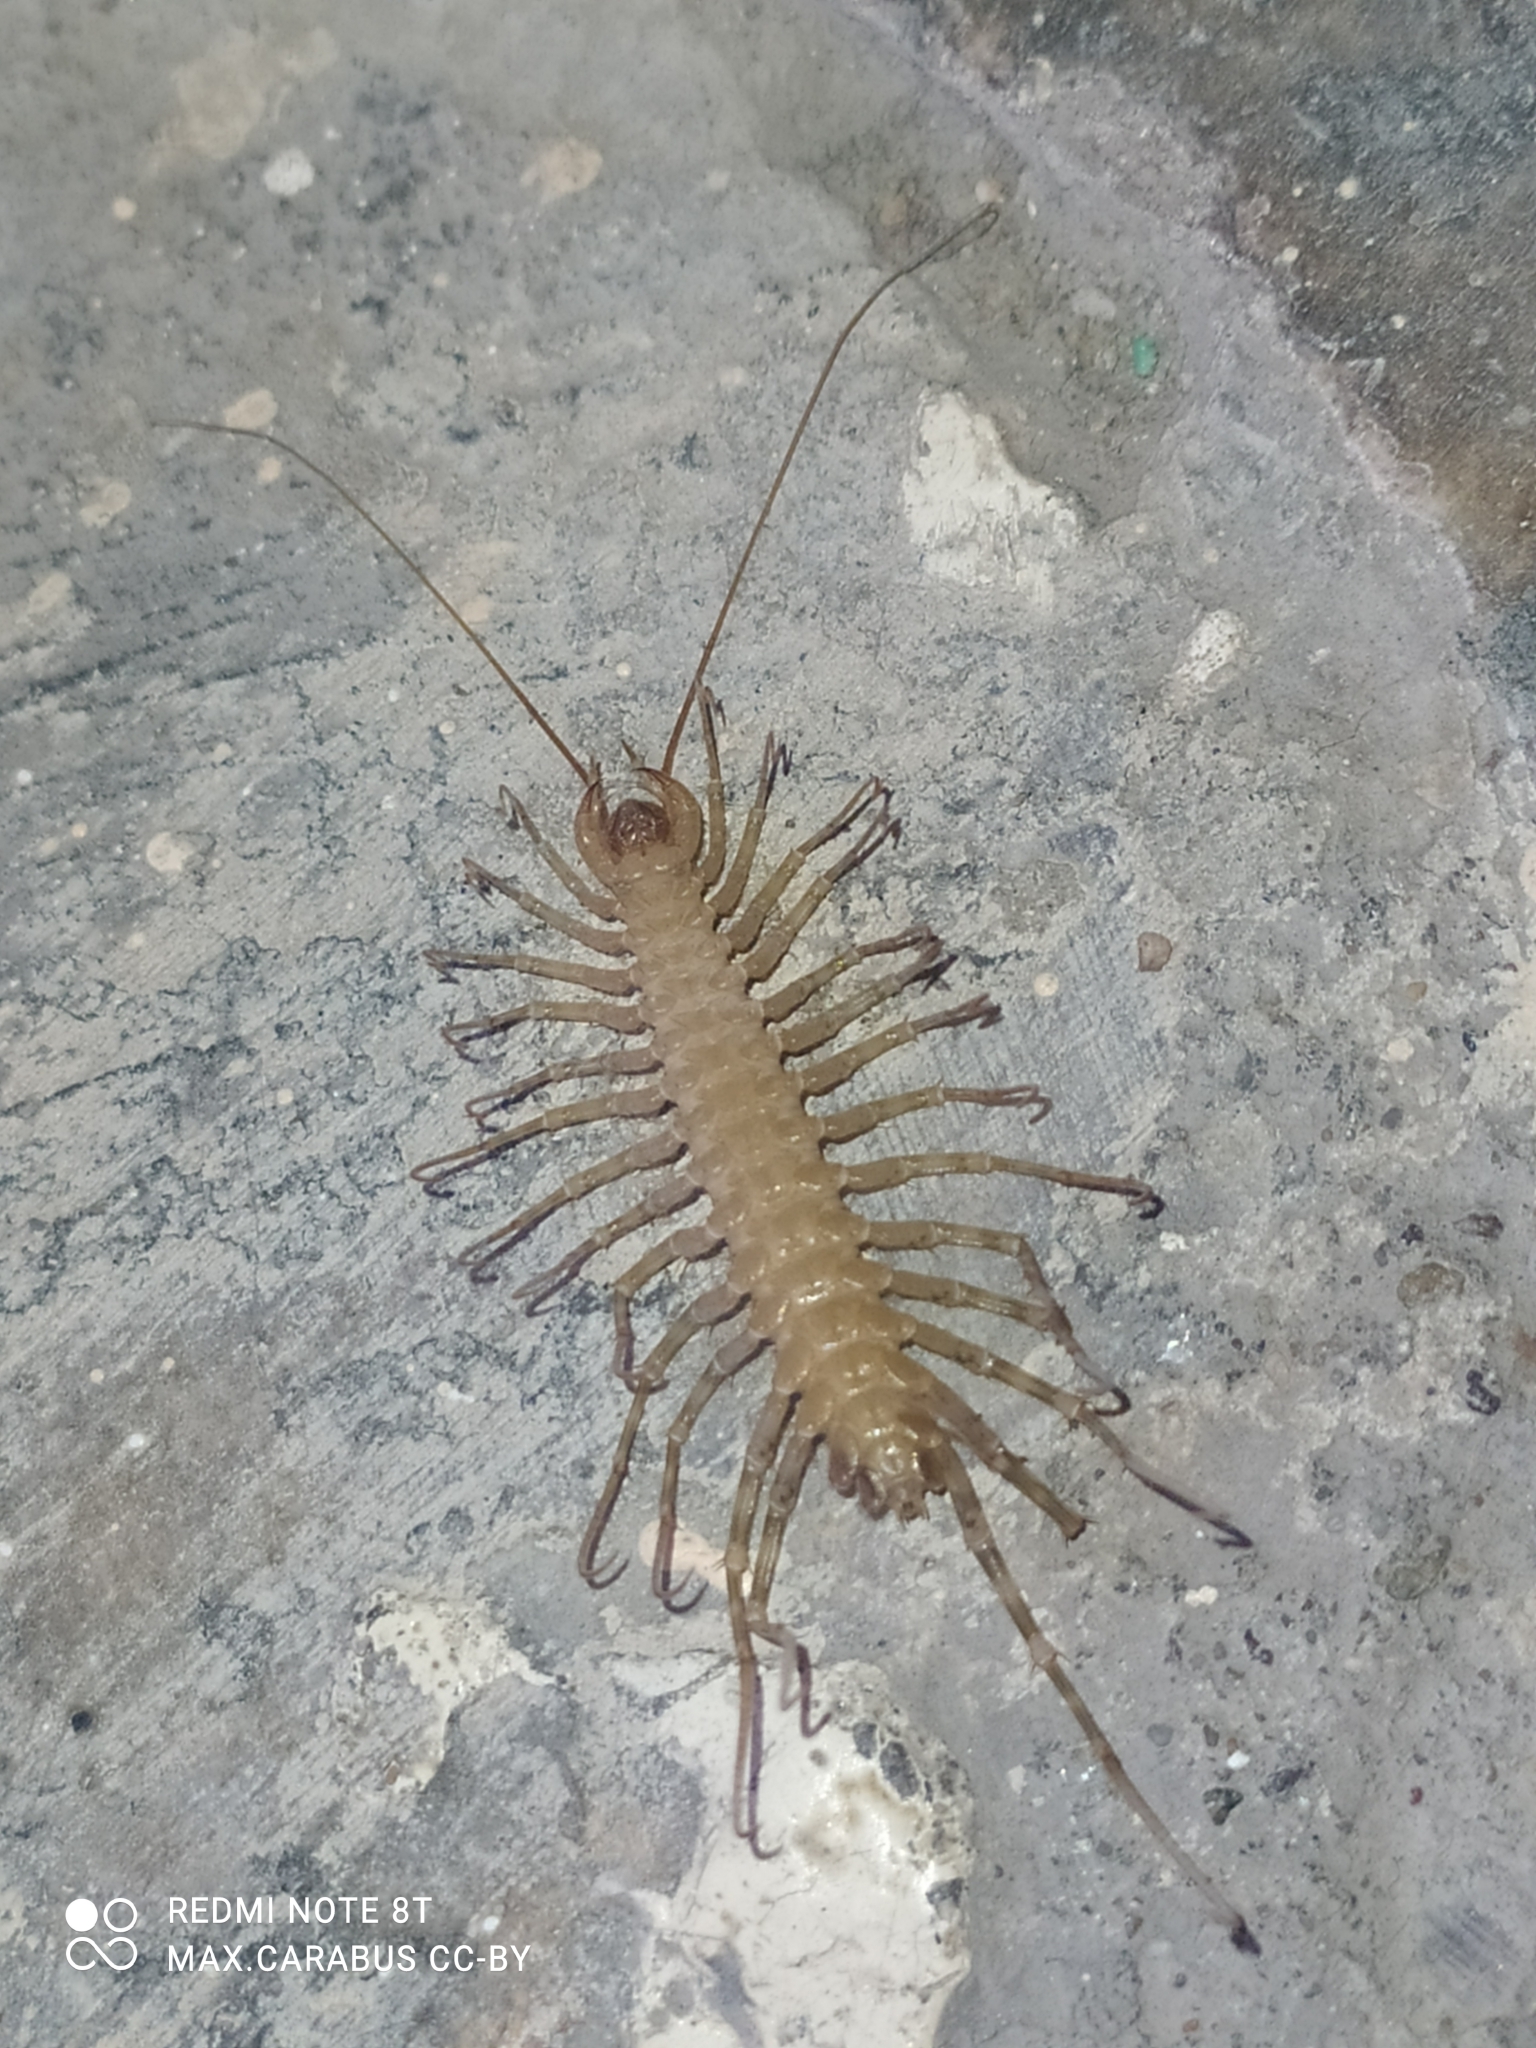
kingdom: Animalia
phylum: Arthropoda
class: Chilopoda
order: Scutigeromorpha
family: Scutigeridae
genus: Scutigera
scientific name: Scutigera coleoptrata
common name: House centipede
